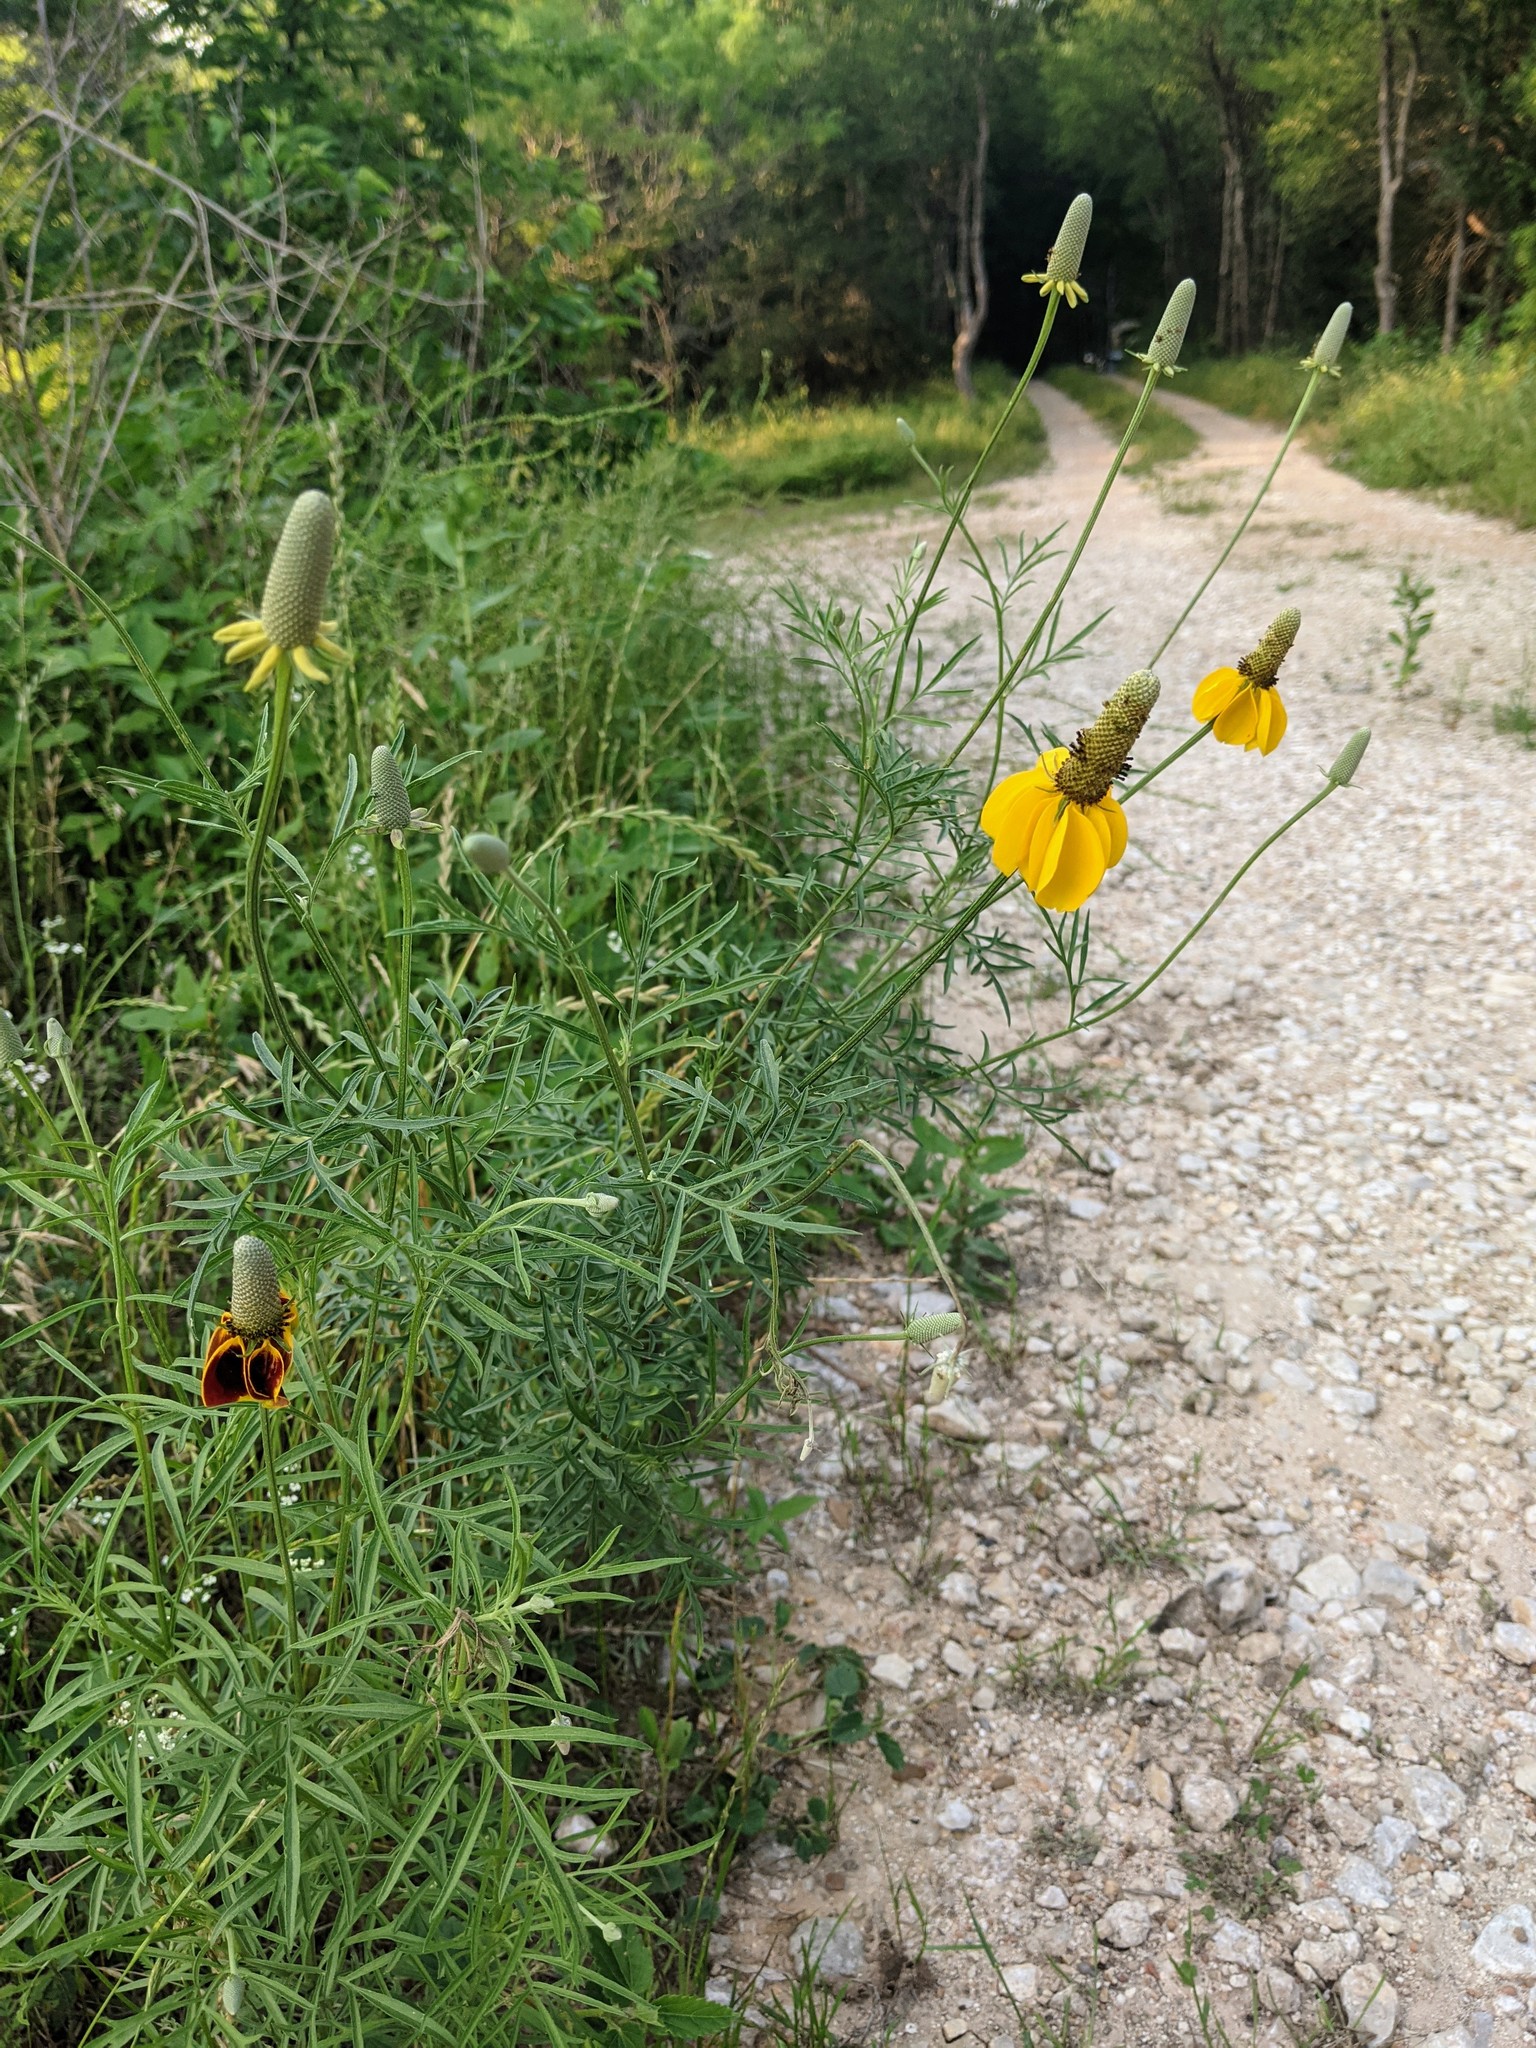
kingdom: Plantae
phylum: Tracheophyta
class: Magnoliopsida
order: Asterales
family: Asteraceae
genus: Ratibida
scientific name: Ratibida columnifera
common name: Prairie coneflower
